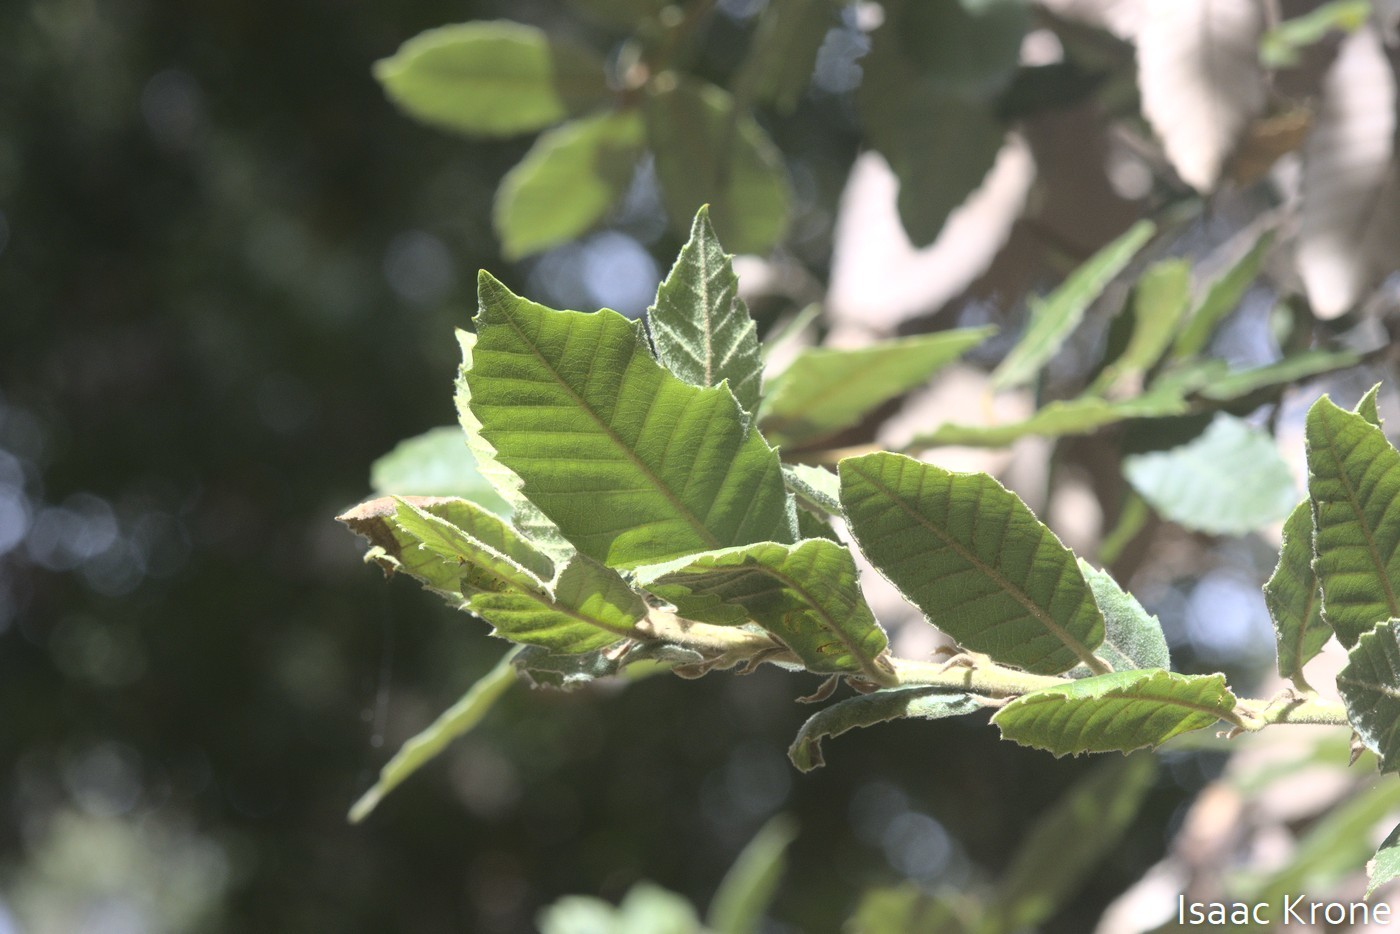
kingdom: Plantae
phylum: Tracheophyta
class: Magnoliopsida
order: Fagales
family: Fagaceae
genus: Notholithocarpus
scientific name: Notholithocarpus densiflorus
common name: Tan bark oak
